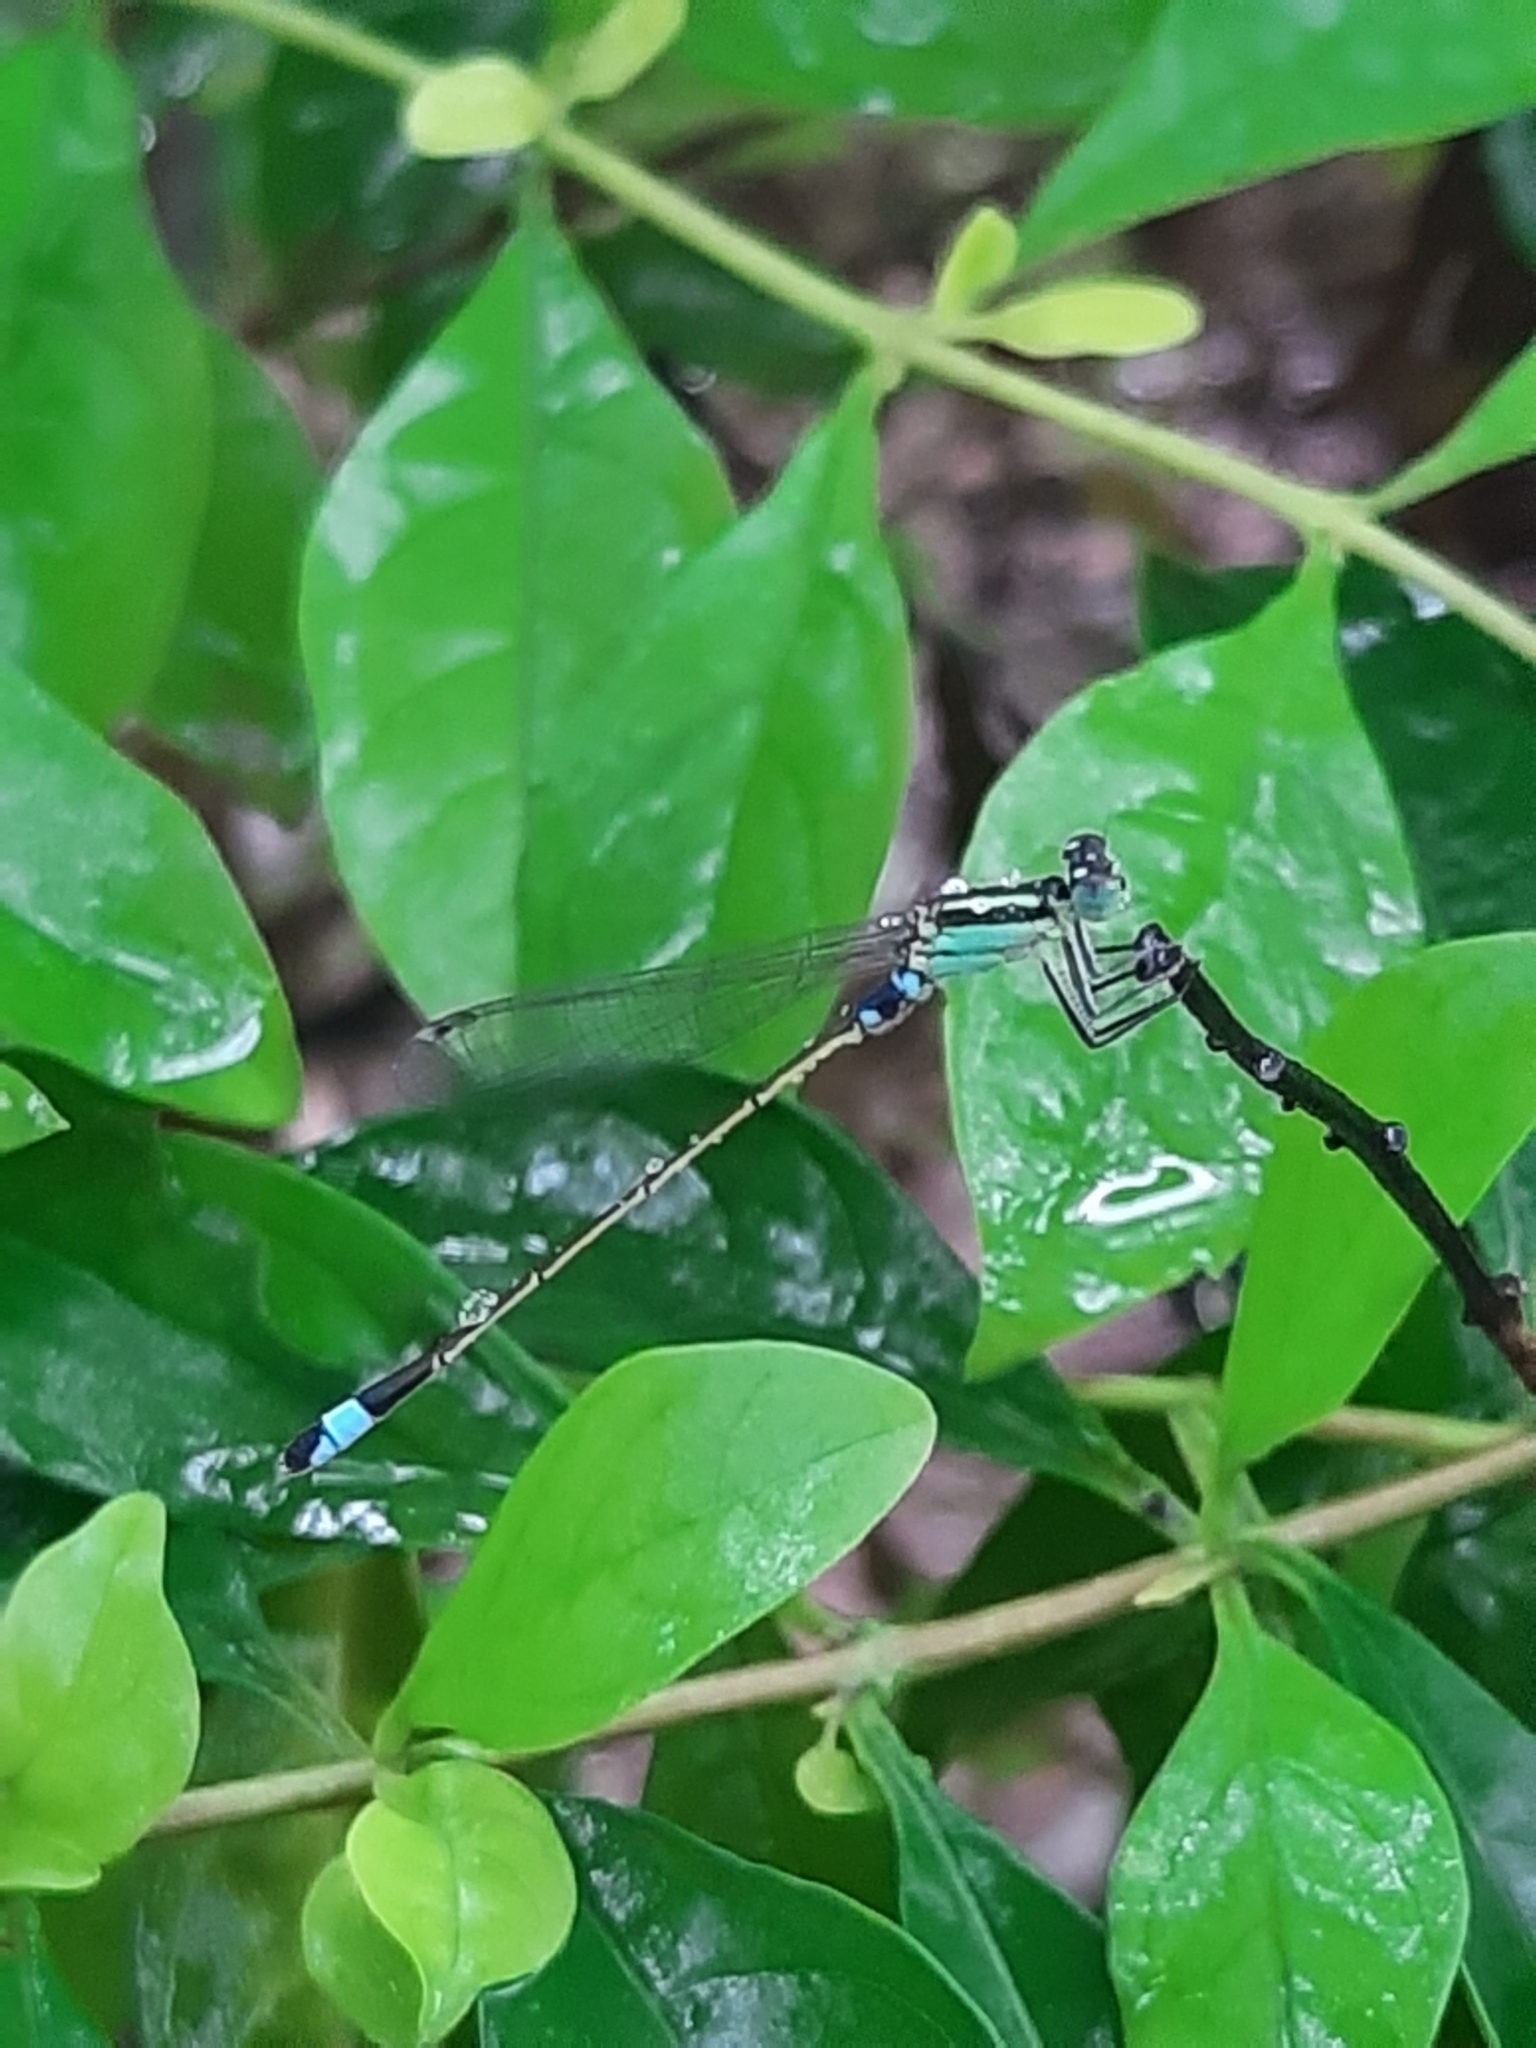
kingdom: Animalia
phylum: Arthropoda
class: Insecta
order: Odonata
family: Coenagrionidae
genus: Ischnura
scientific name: Ischnura senegalensis
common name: Tropical bluetail
